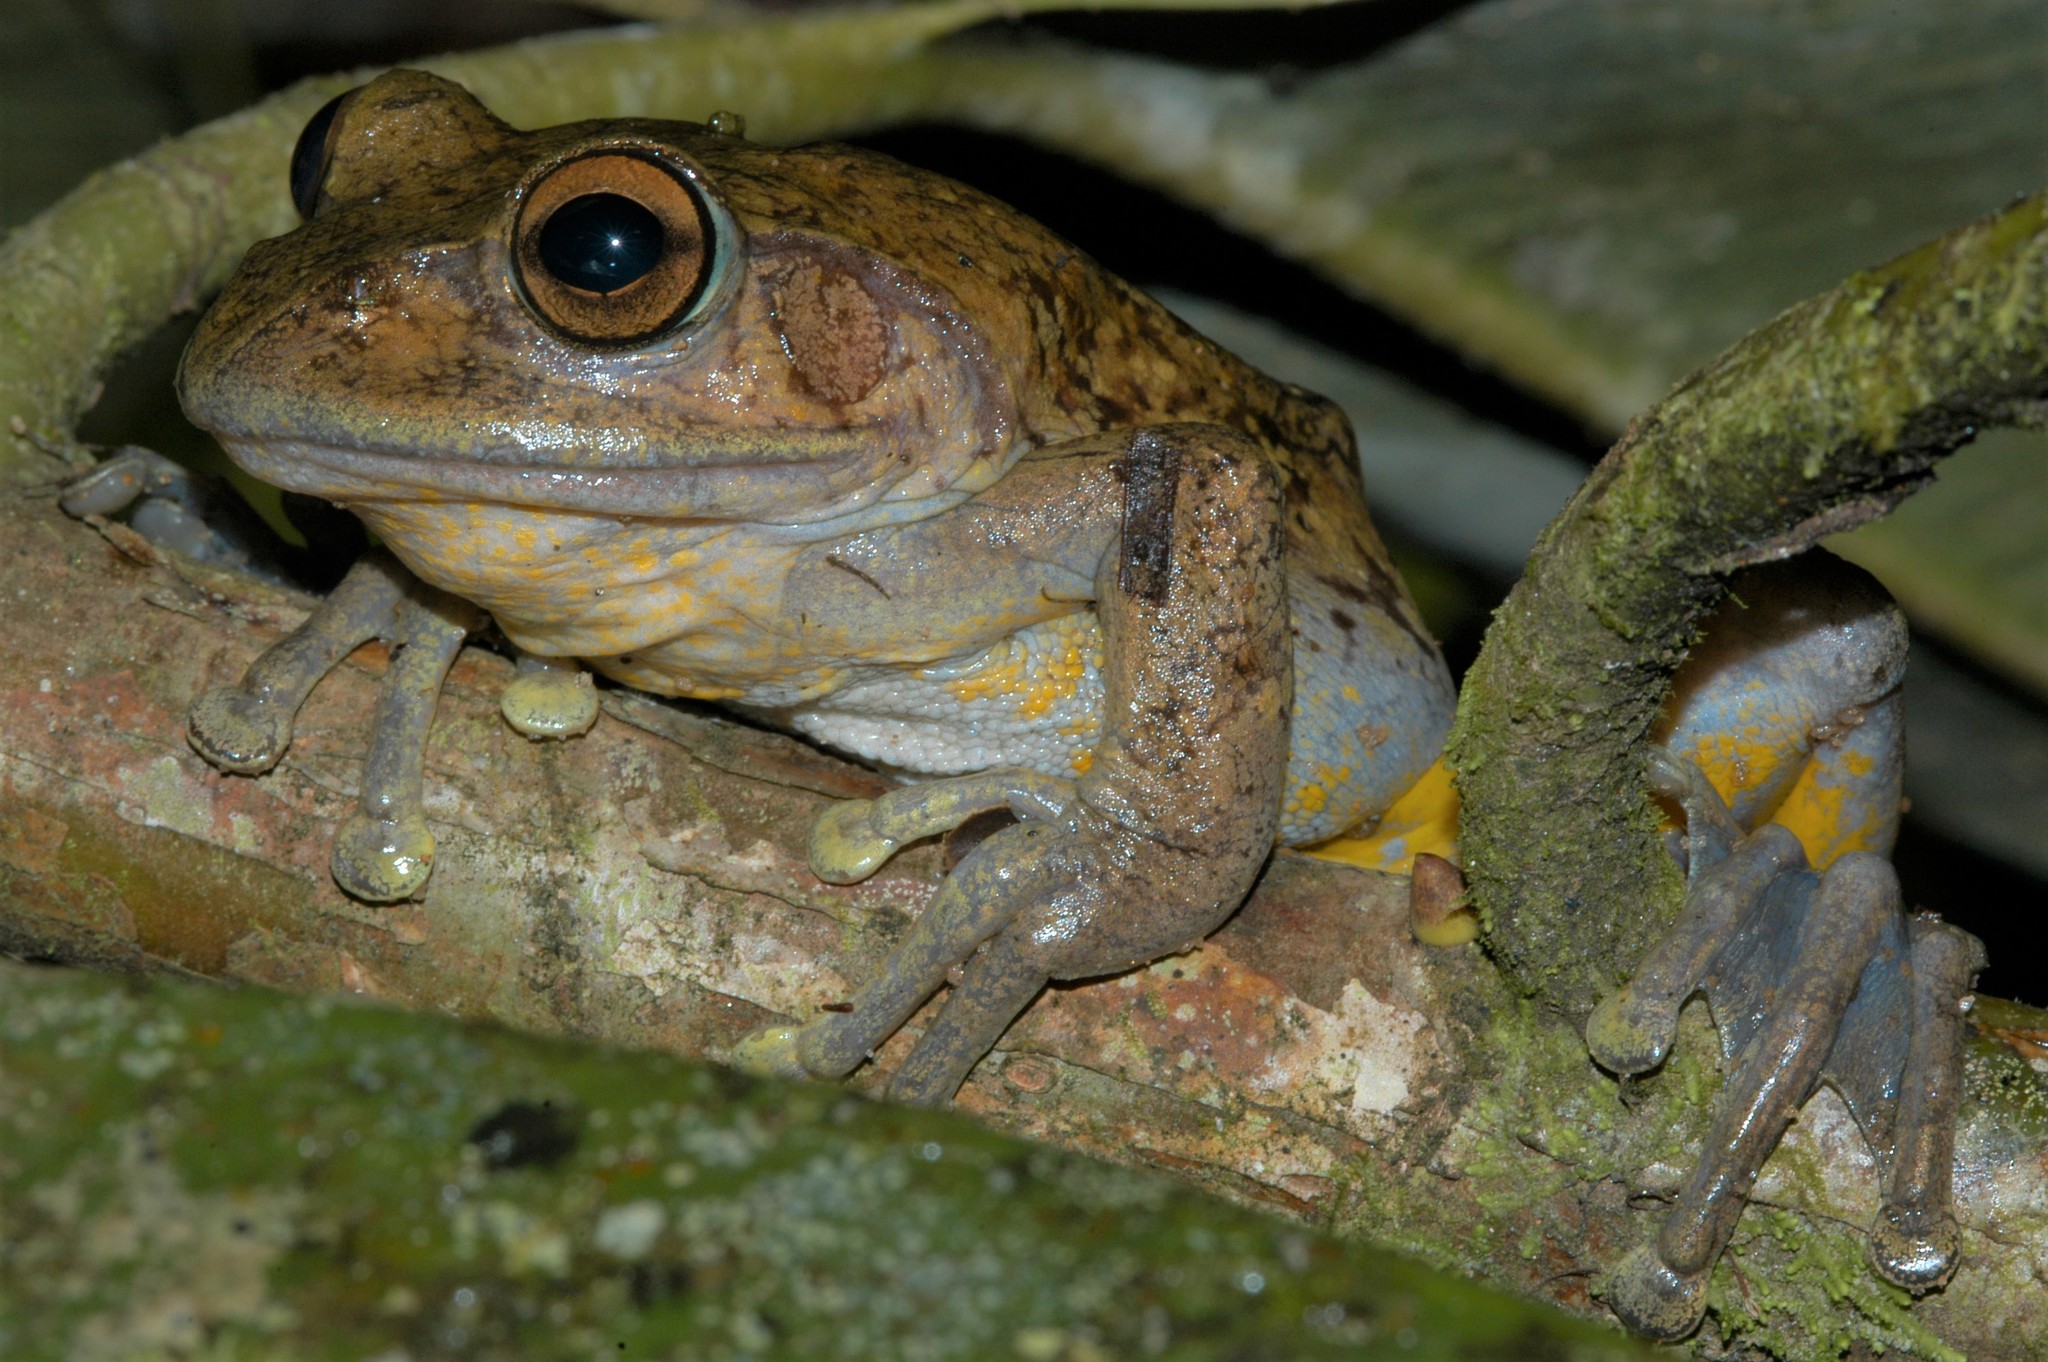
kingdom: Animalia
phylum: Chordata
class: Amphibia
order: Anura
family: Mantellidae
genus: Boophis
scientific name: Boophis goudotii
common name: Goudot's bright-eyed frog
